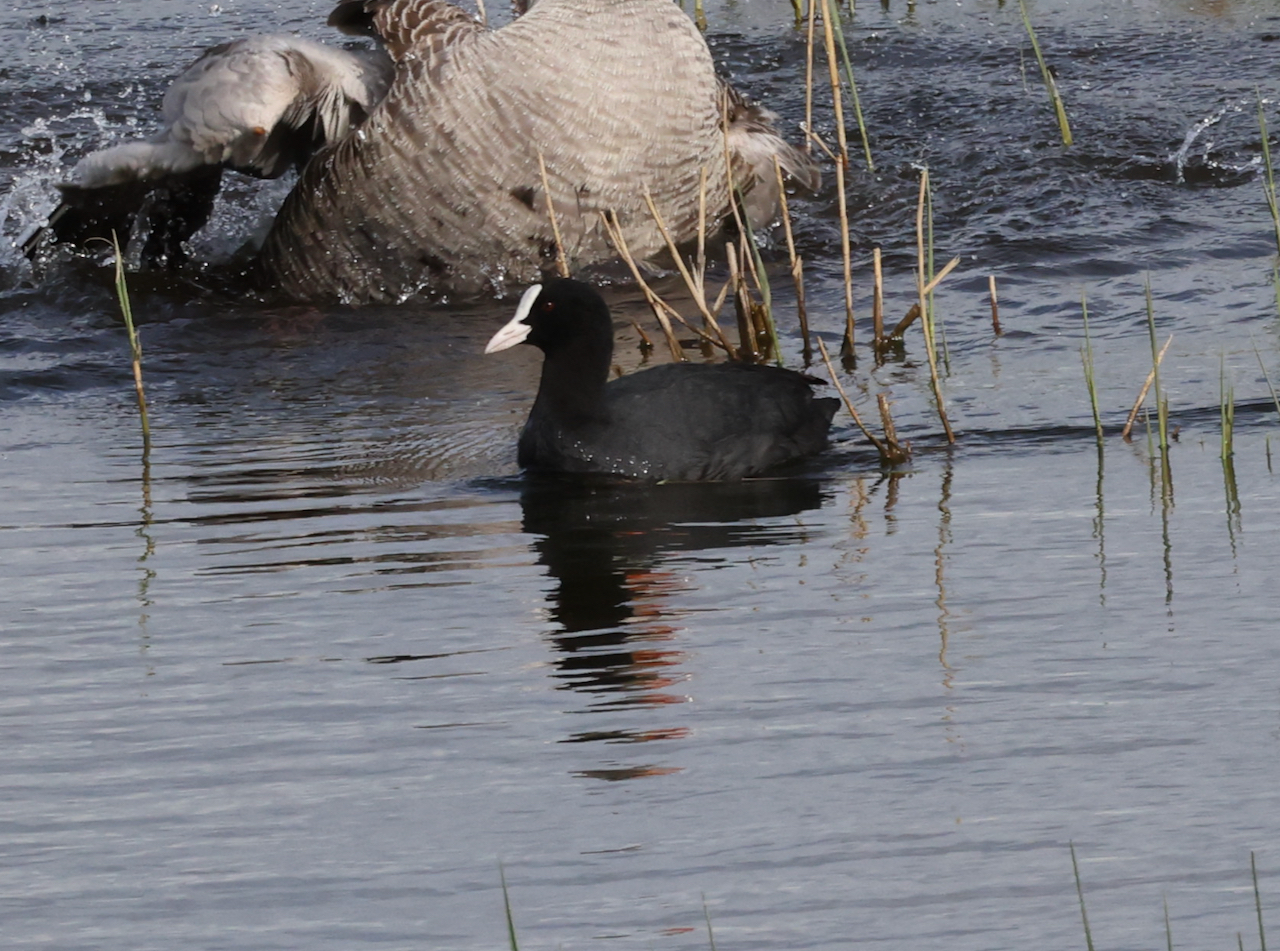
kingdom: Animalia
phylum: Chordata
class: Aves
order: Gruiformes
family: Rallidae
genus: Fulica
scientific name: Fulica atra
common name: Eurasian coot
